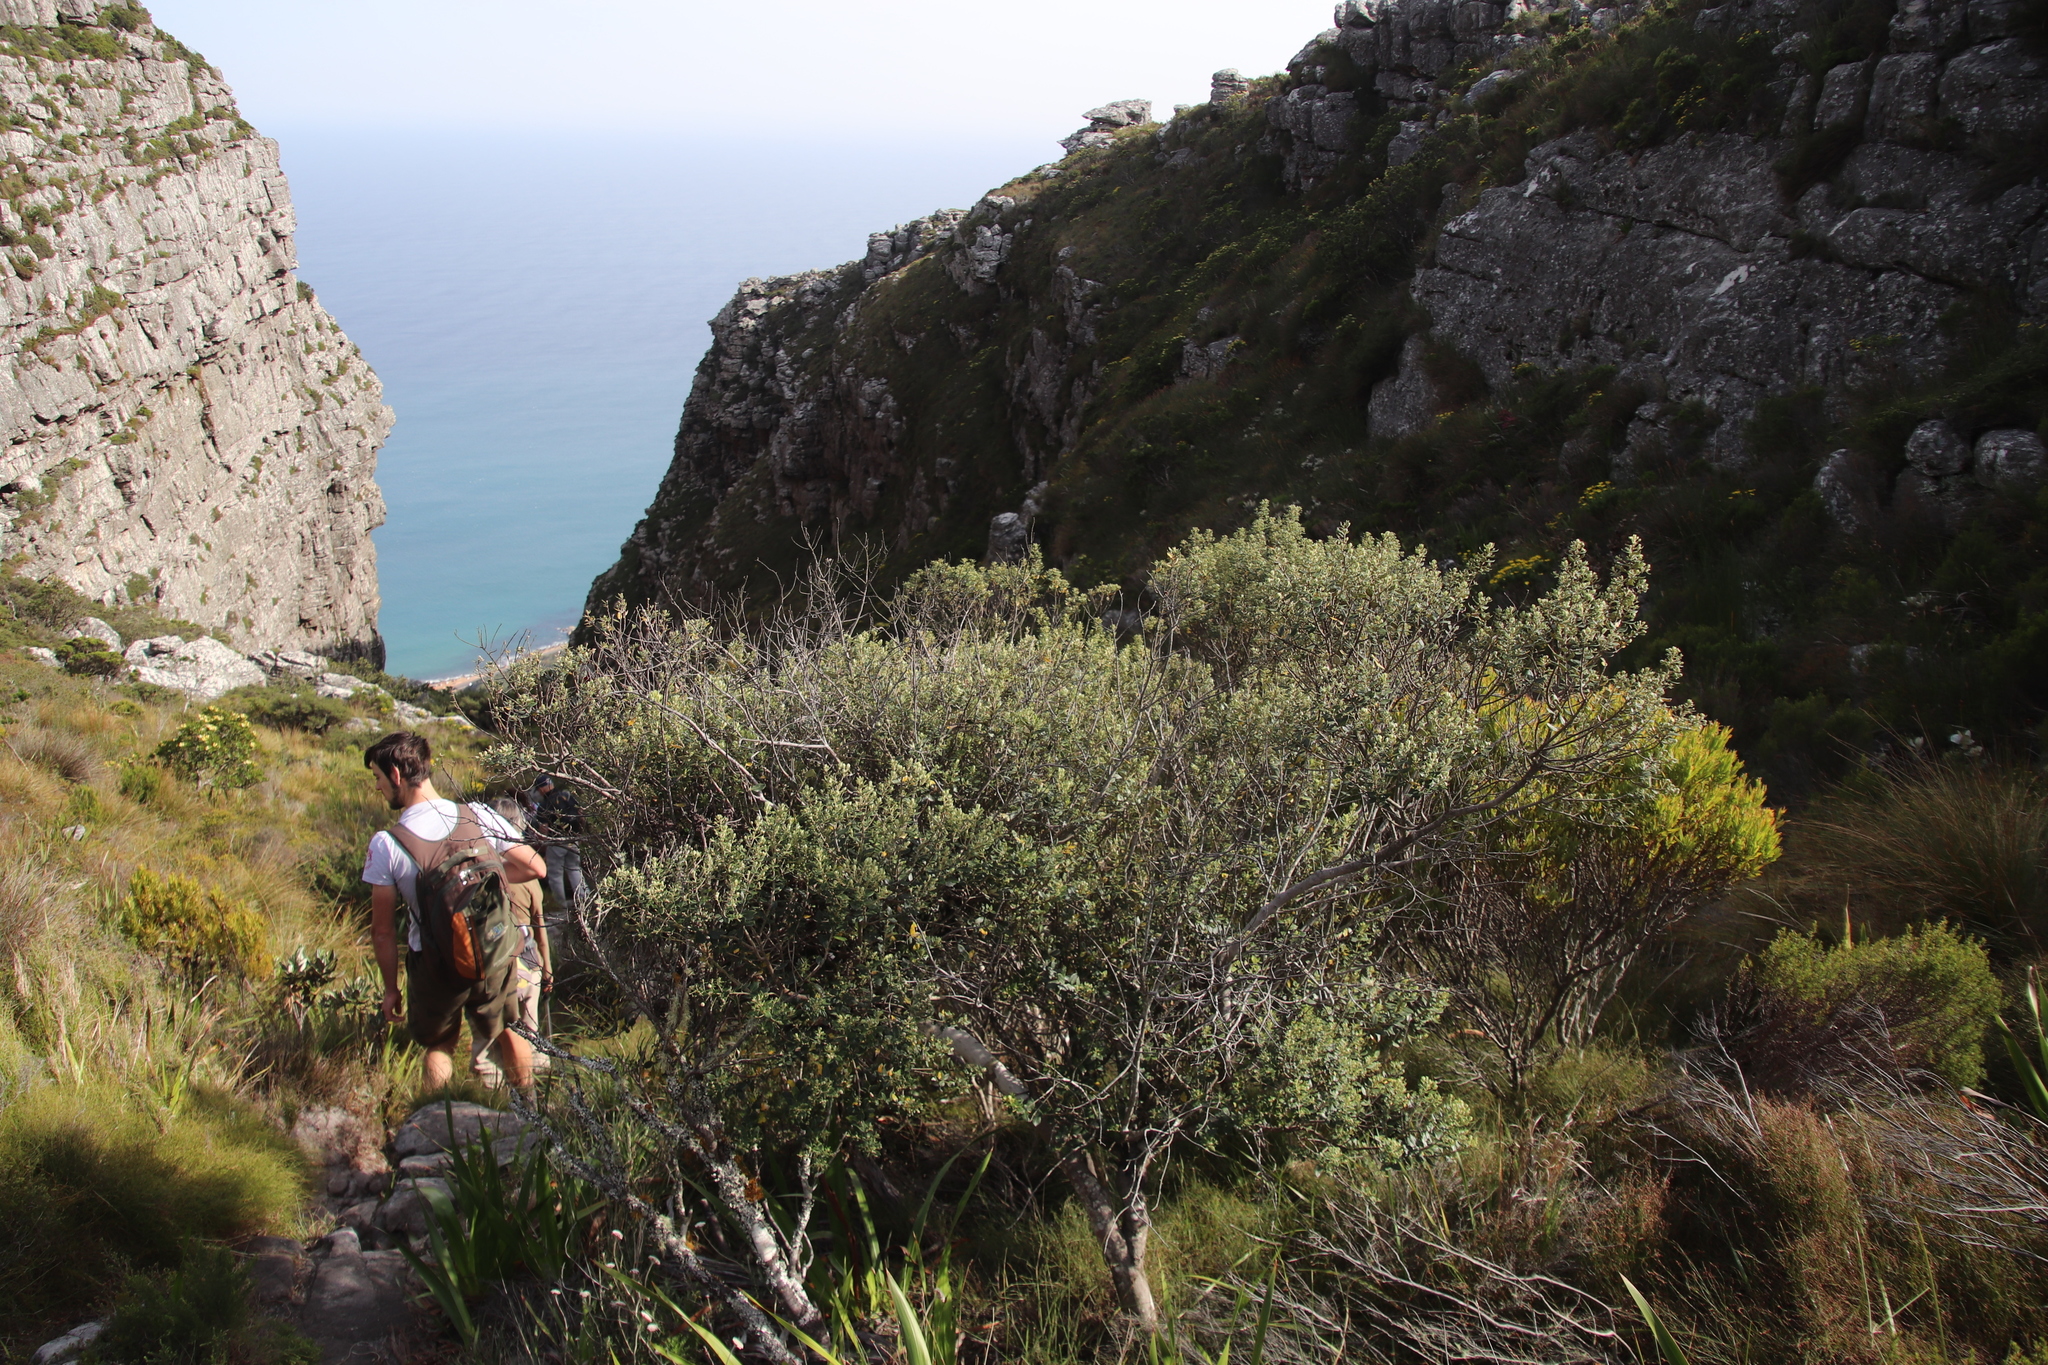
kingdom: Plantae
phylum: Tracheophyta
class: Magnoliopsida
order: Rosales
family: Rhamnaceae
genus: Phylica
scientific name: Phylica buxifolia
